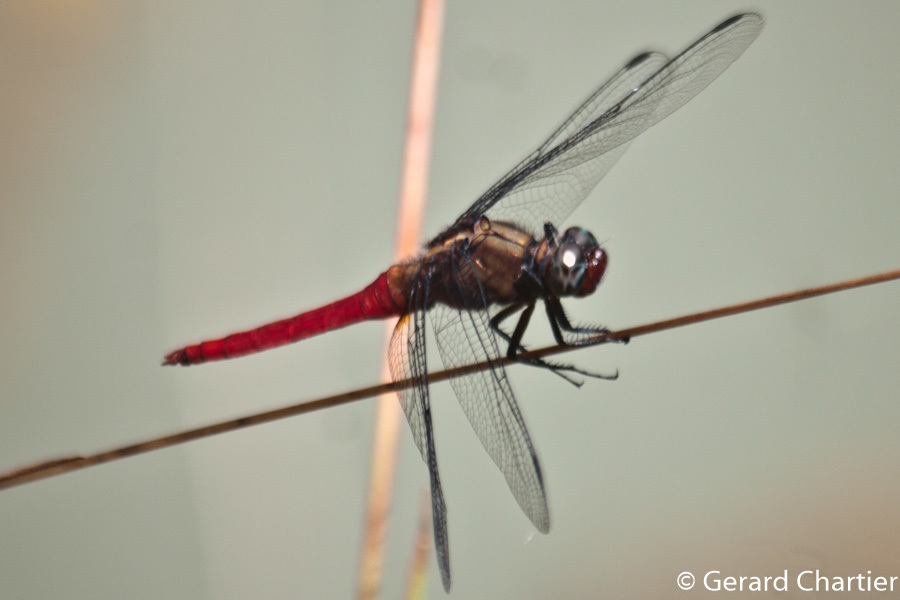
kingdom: Animalia
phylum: Arthropoda
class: Insecta
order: Odonata
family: Libellulidae
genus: Orthetrum
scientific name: Orthetrum chrysis
